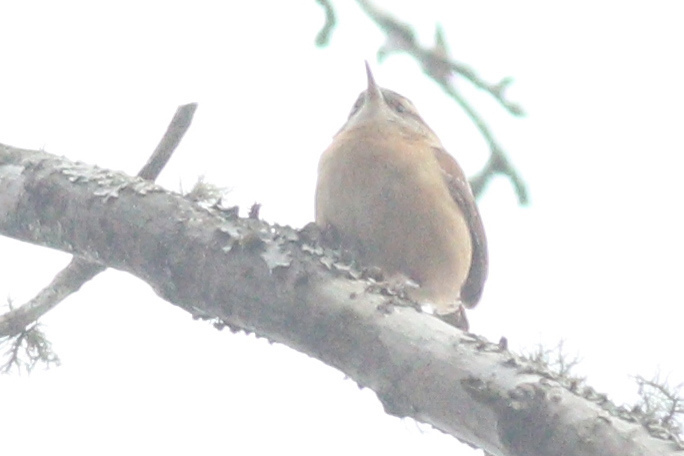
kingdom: Animalia
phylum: Chordata
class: Aves
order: Passeriformes
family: Troglodytidae
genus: Thryothorus
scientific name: Thryothorus ludovicianus
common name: Carolina wren
